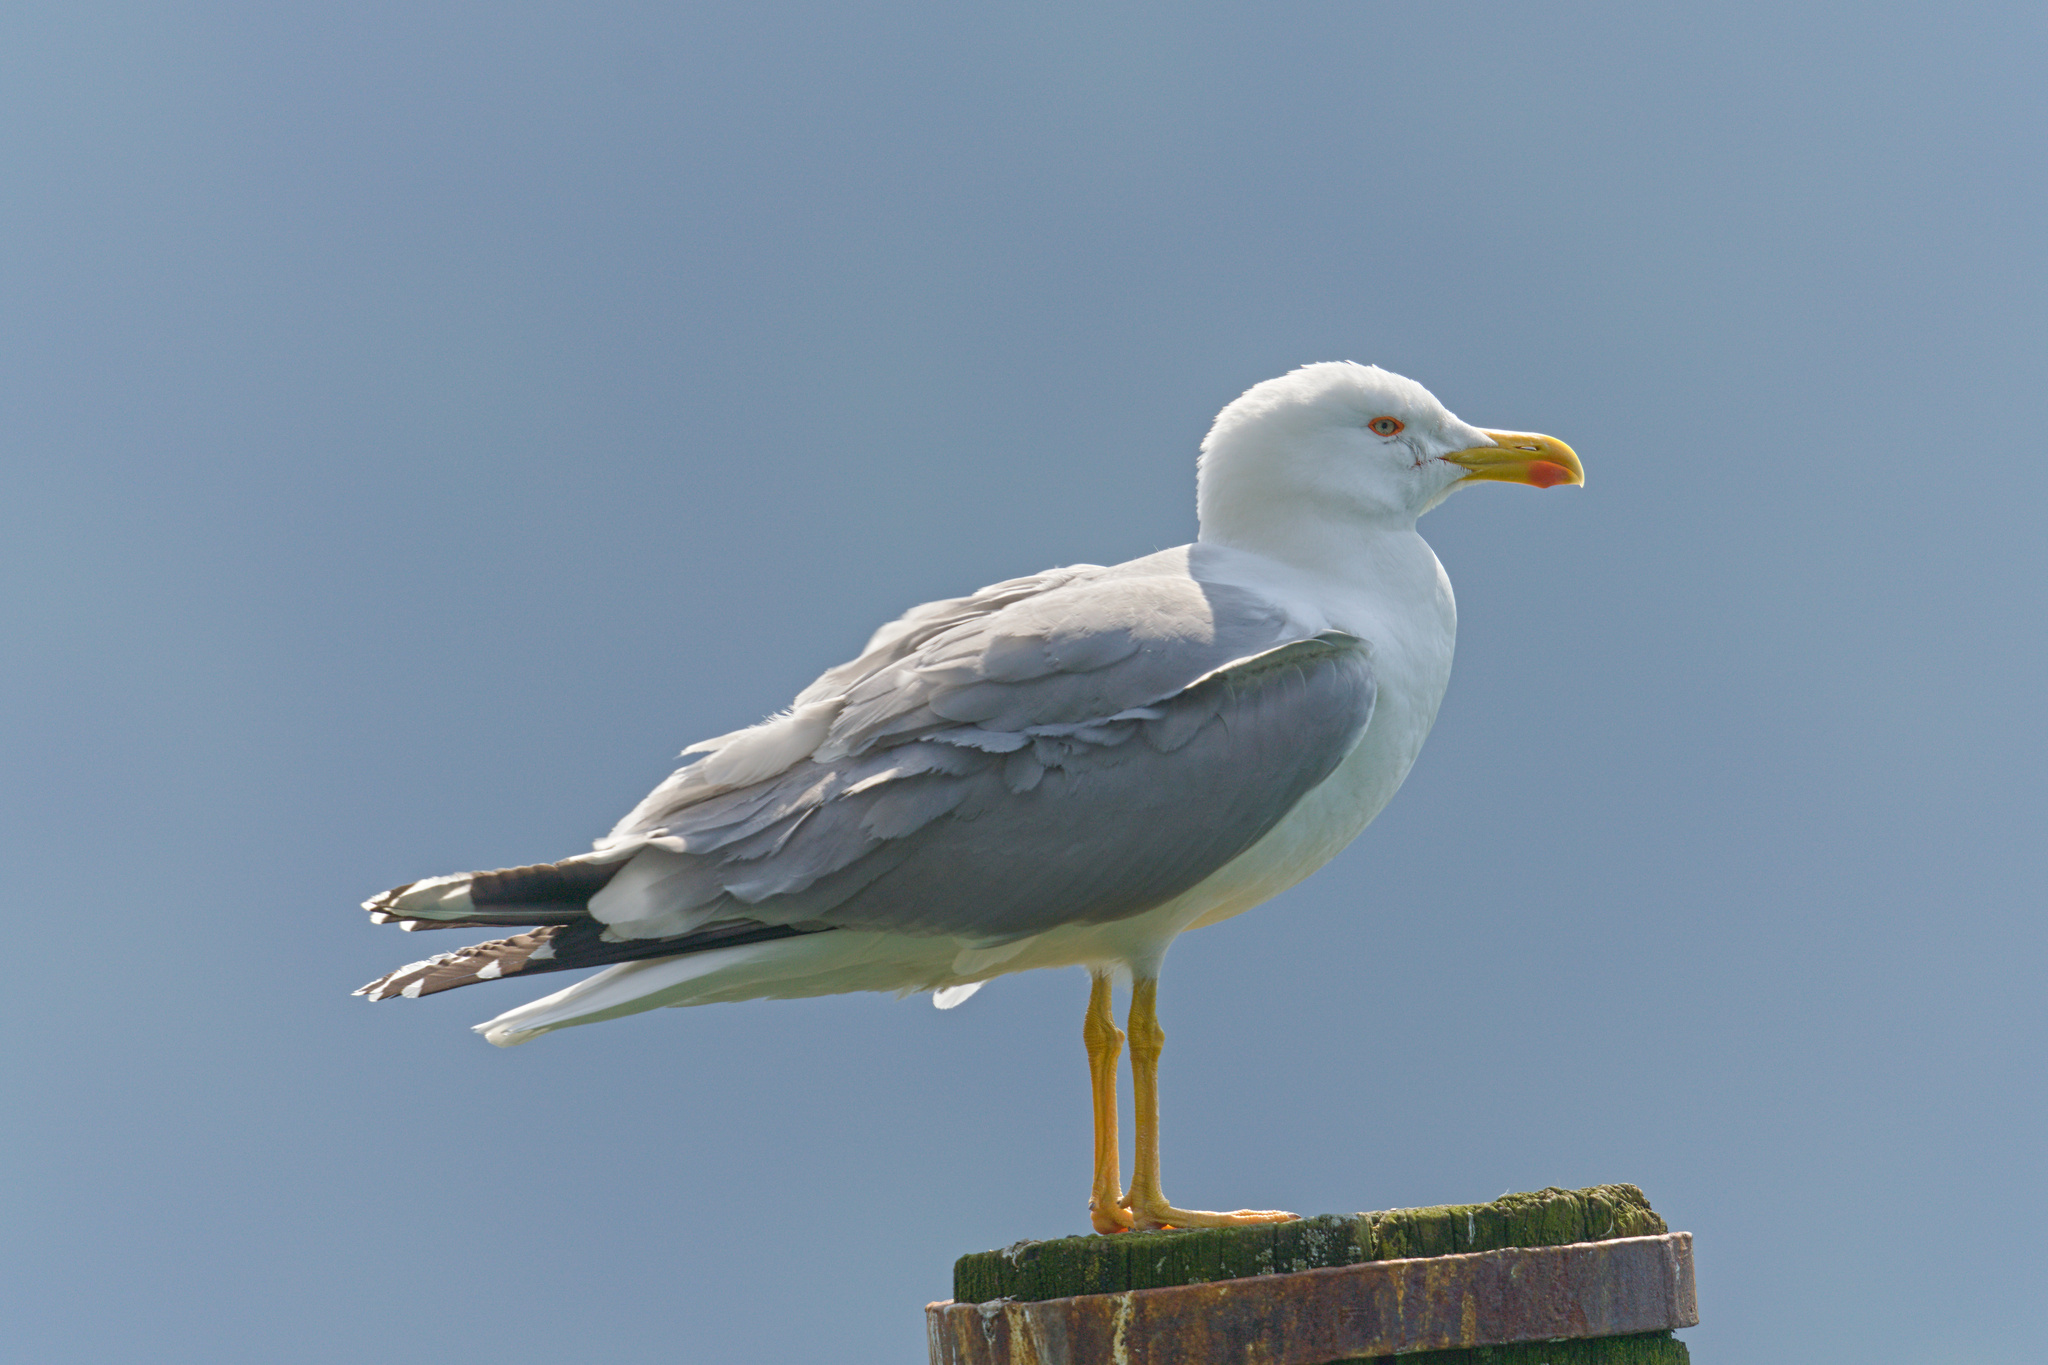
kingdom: Animalia
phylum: Chordata
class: Aves
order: Charadriiformes
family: Laridae
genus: Larus
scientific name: Larus michahellis
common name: Yellow-legged gull
